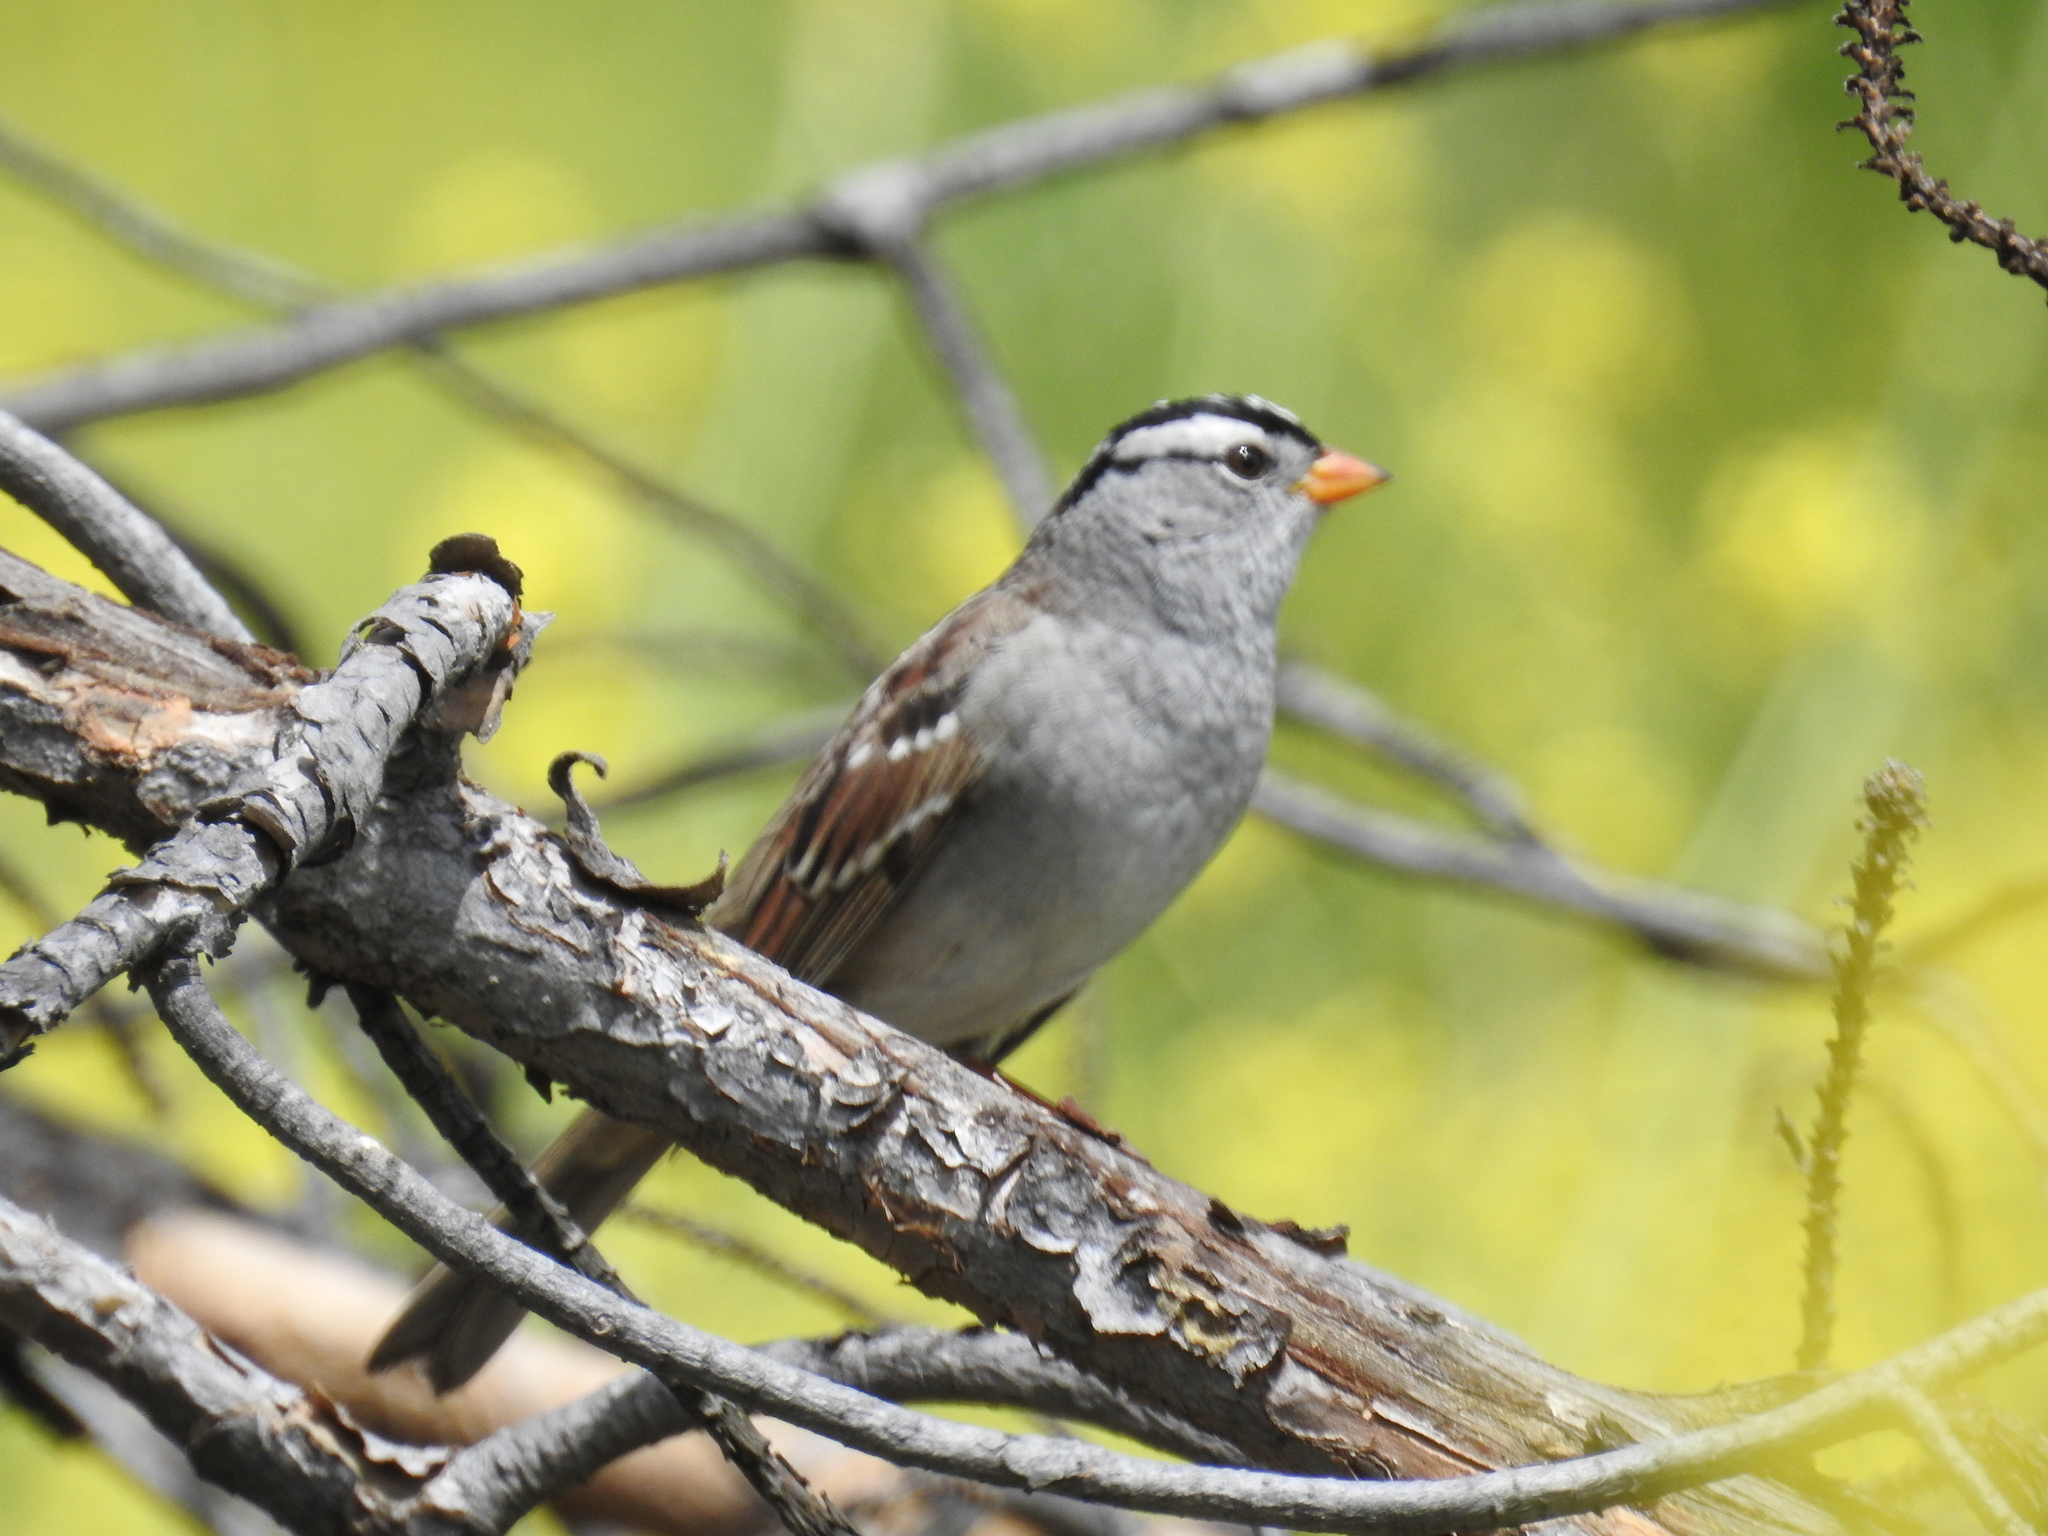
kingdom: Animalia
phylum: Chordata
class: Aves
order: Passeriformes
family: Passerellidae
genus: Zonotrichia
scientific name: Zonotrichia leucophrys
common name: White-crowned sparrow
